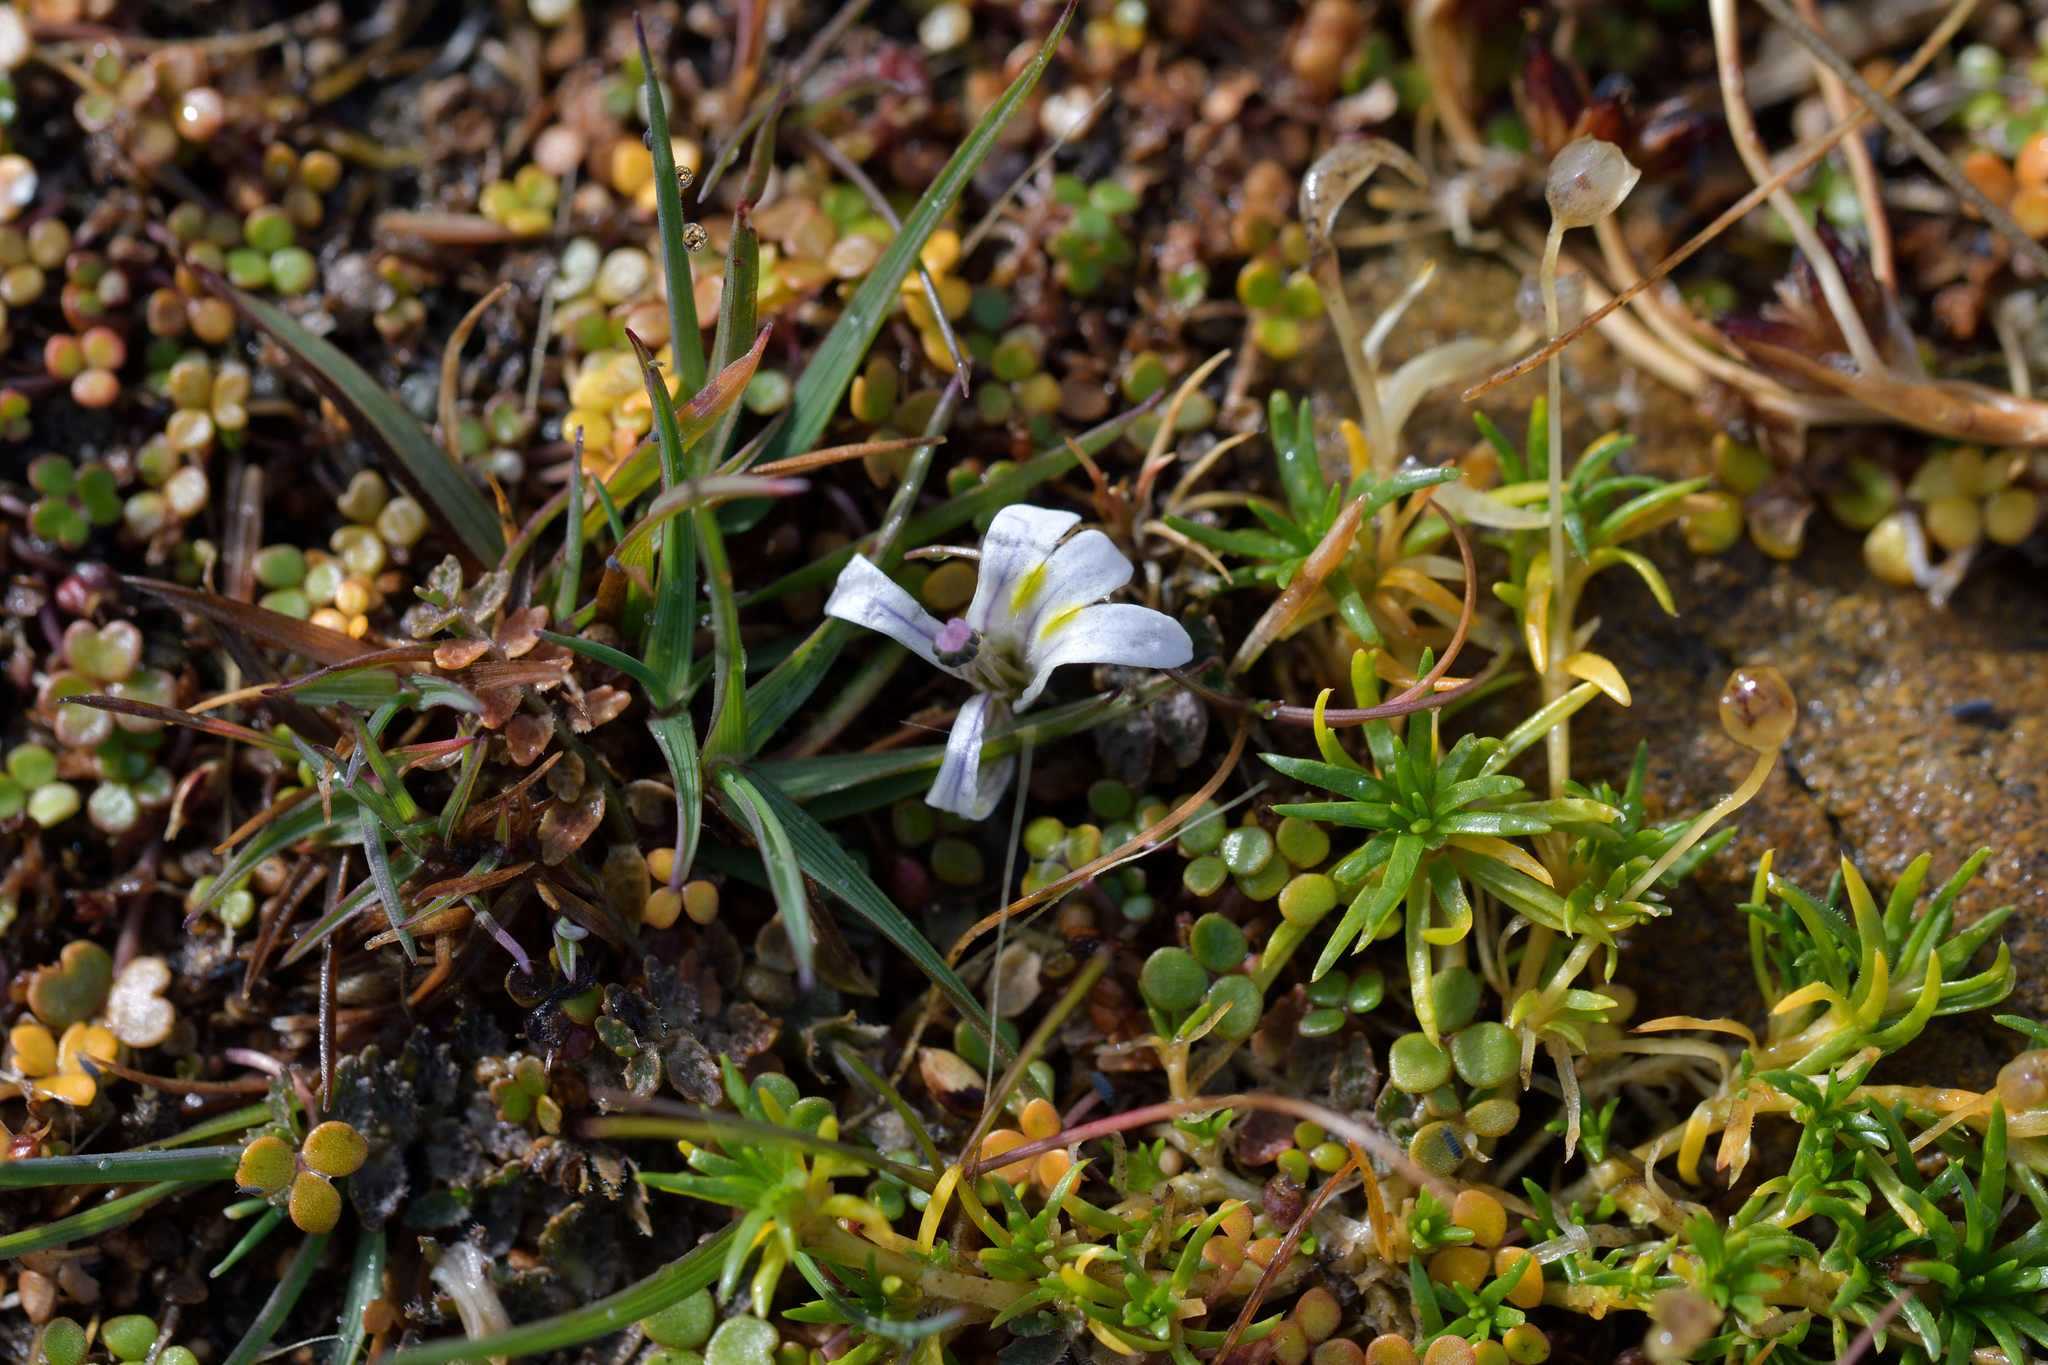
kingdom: Plantae
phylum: Tracheophyta
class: Magnoliopsida
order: Asterales
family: Campanulaceae
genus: Lobelia
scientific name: Lobelia perpusilla
